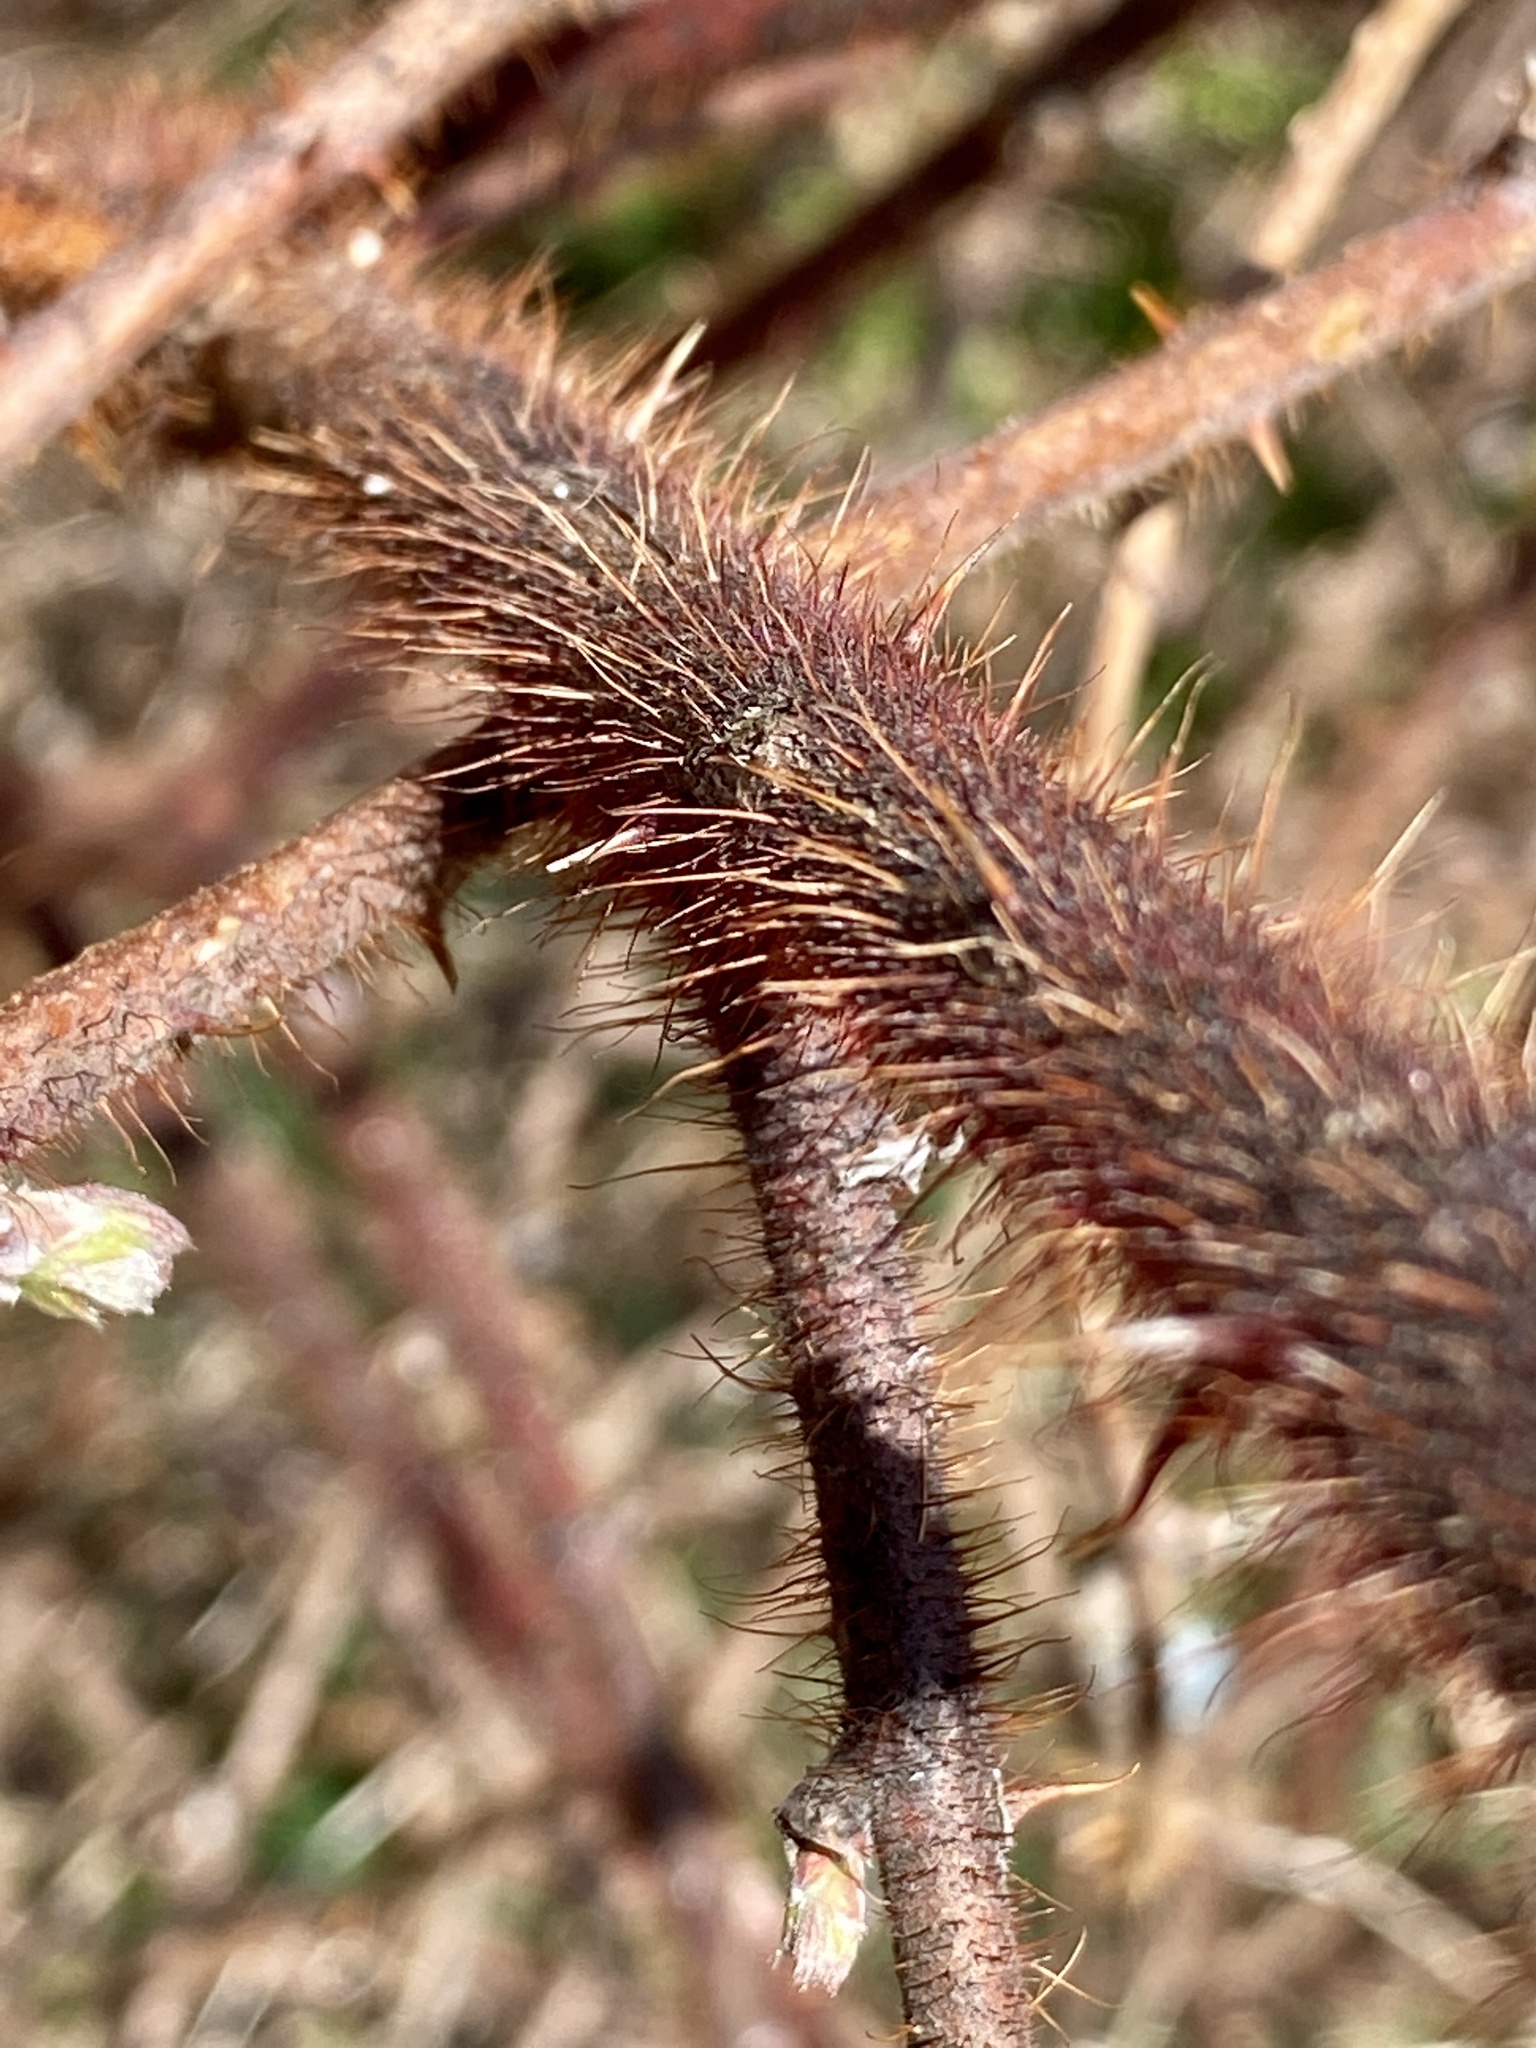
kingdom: Plantae
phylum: Tracheophyta
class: Magnoliopsida
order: Rosales
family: Rosaceae
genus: Rubus
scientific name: Rubus phoenicolasius
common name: Japanese wineberry
